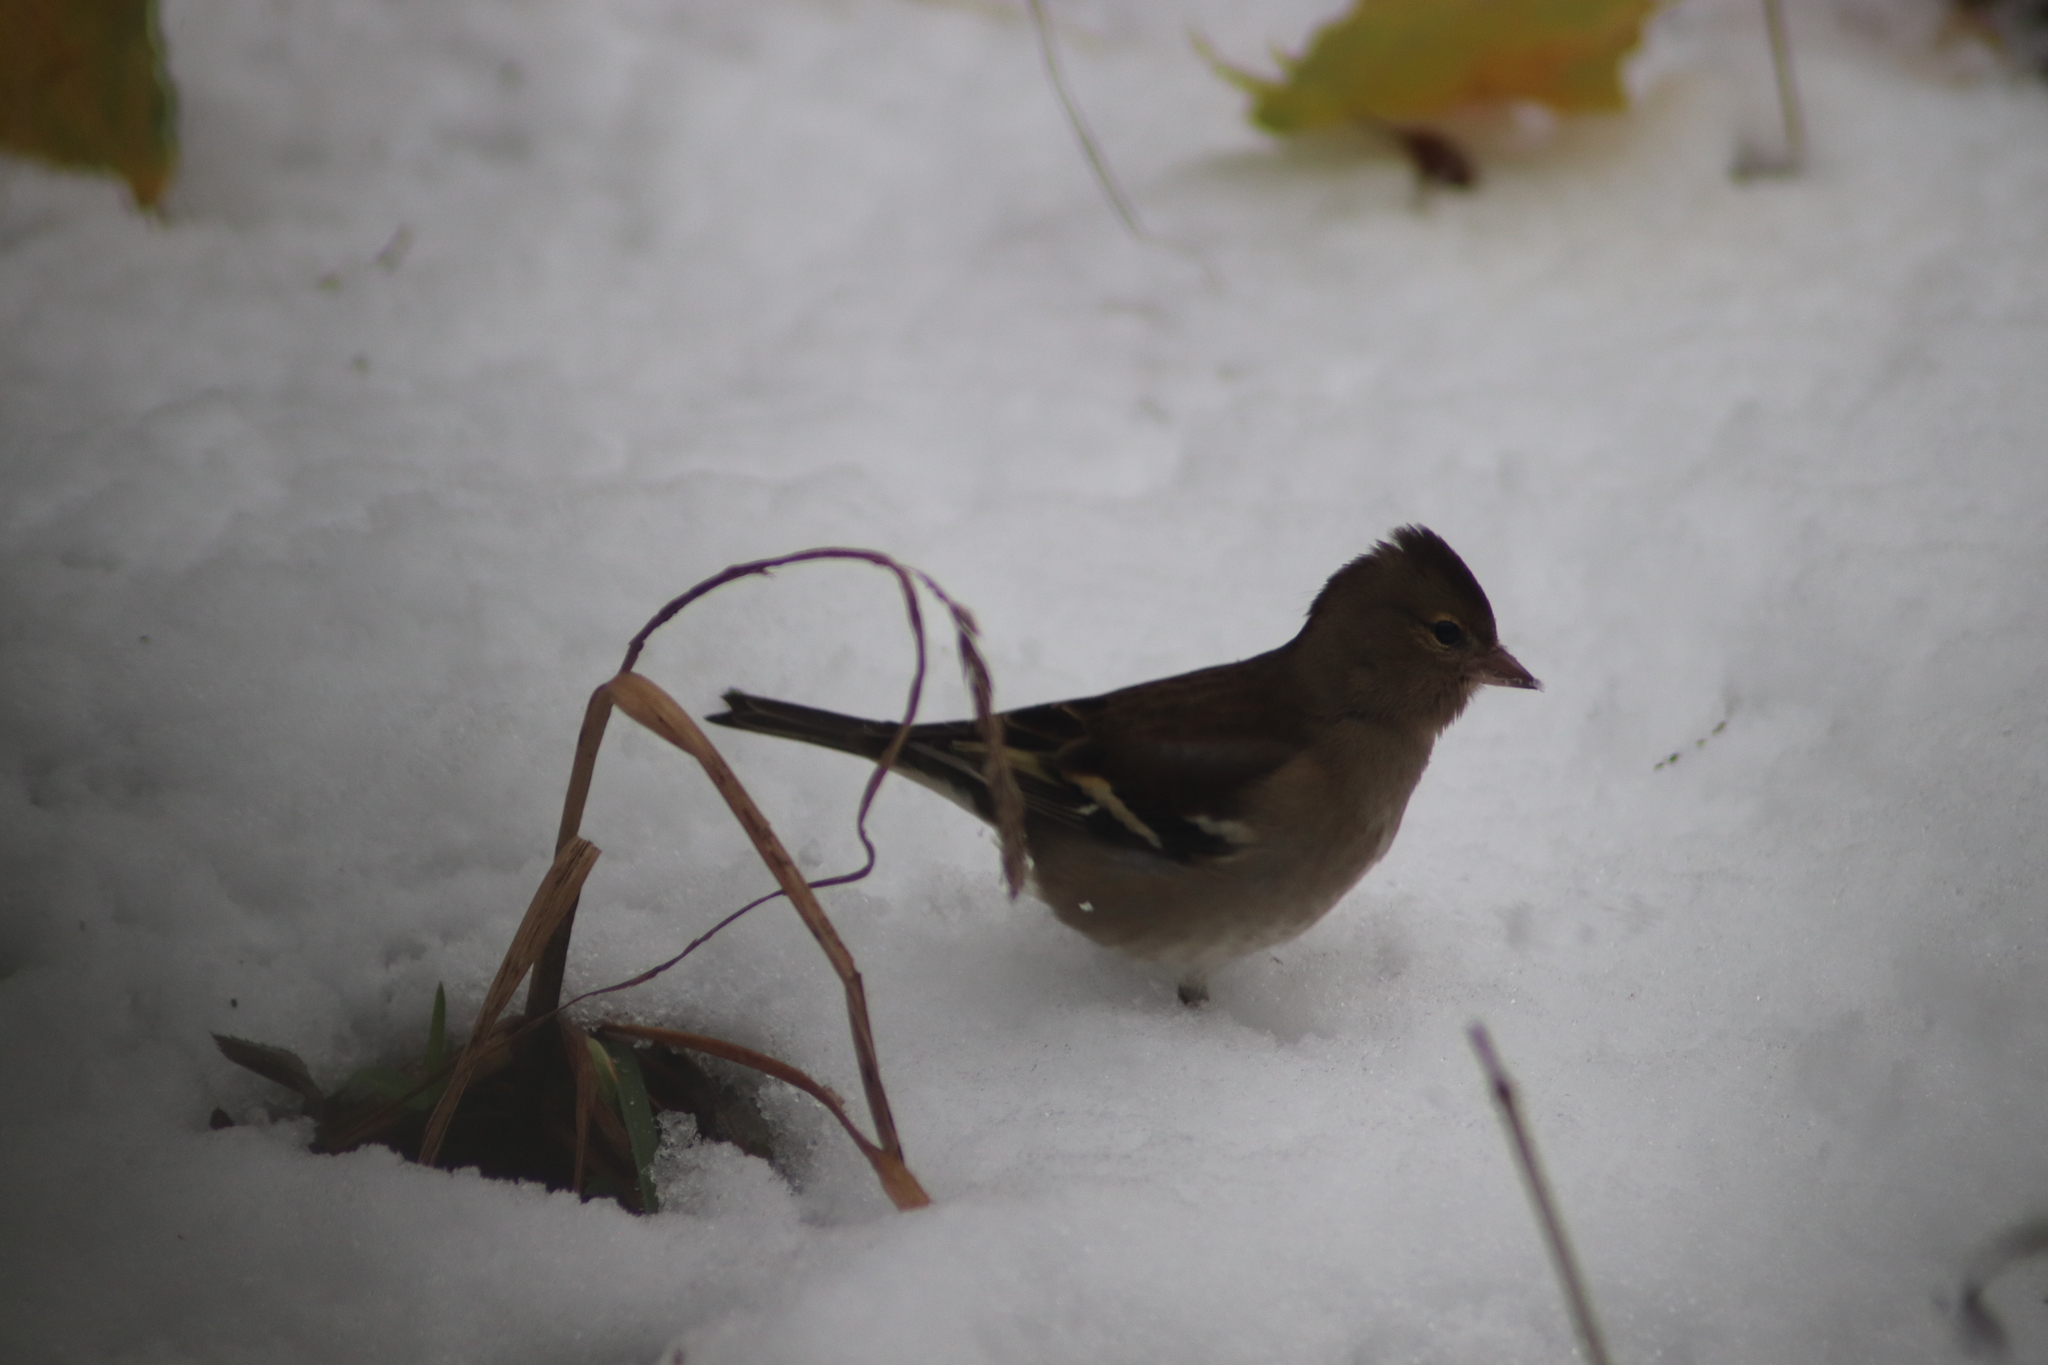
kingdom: Animalia
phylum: Chordata
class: Aves
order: Passeriformes
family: Fringillidae
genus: Fringilla
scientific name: Fringilla coelebs
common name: Common chaffinch
